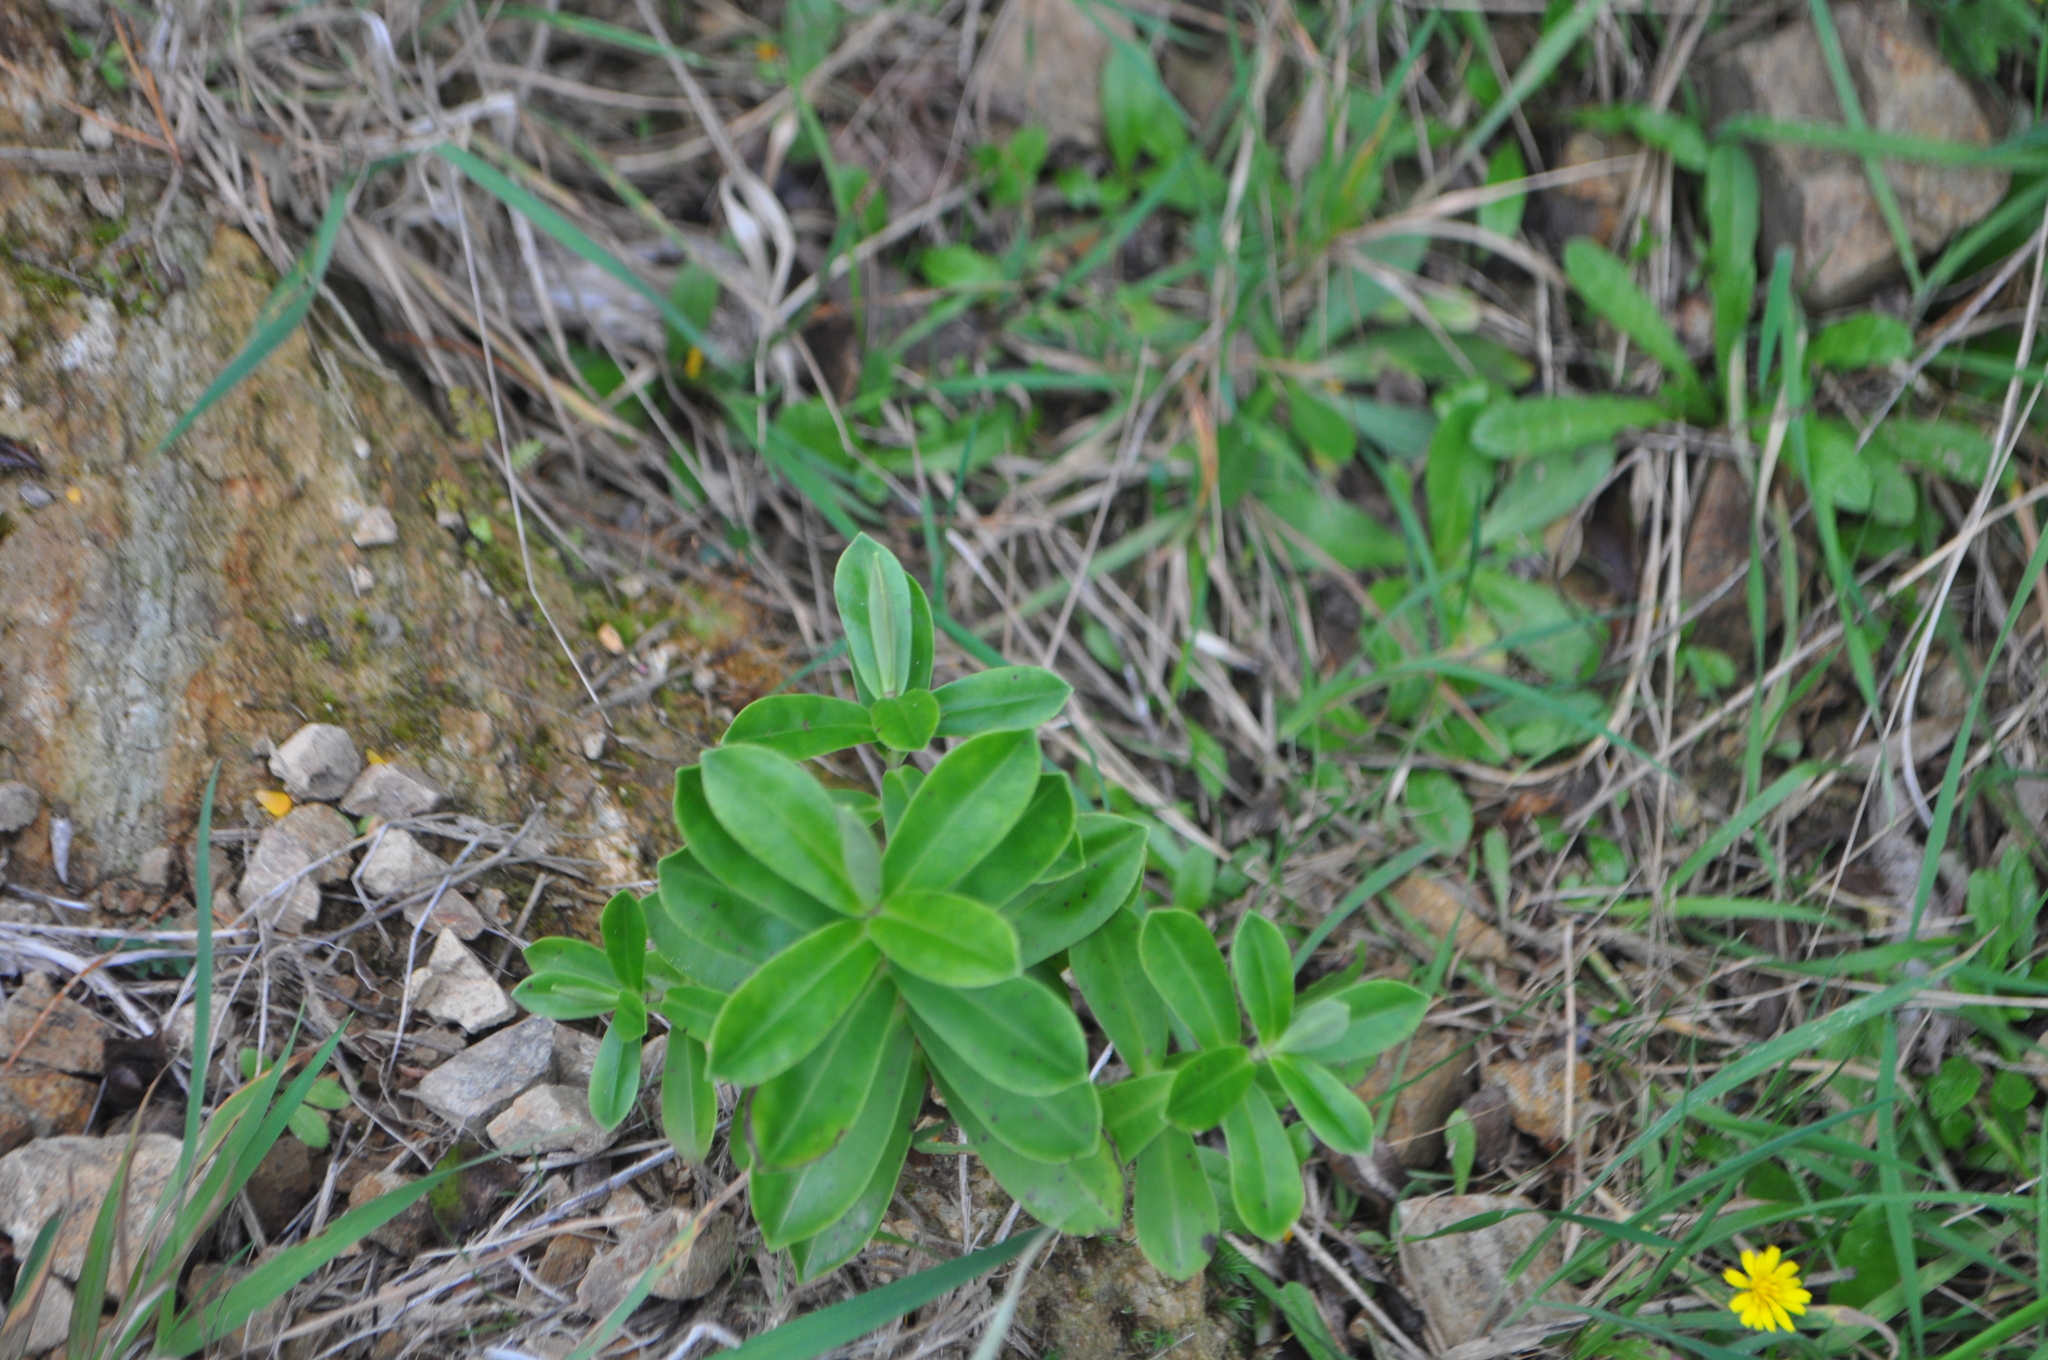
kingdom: Plantae
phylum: Tracheophyta
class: Magnoliopsida
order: Lamiales
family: Plantaginaceae
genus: Veronica
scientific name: Veronica stricta
